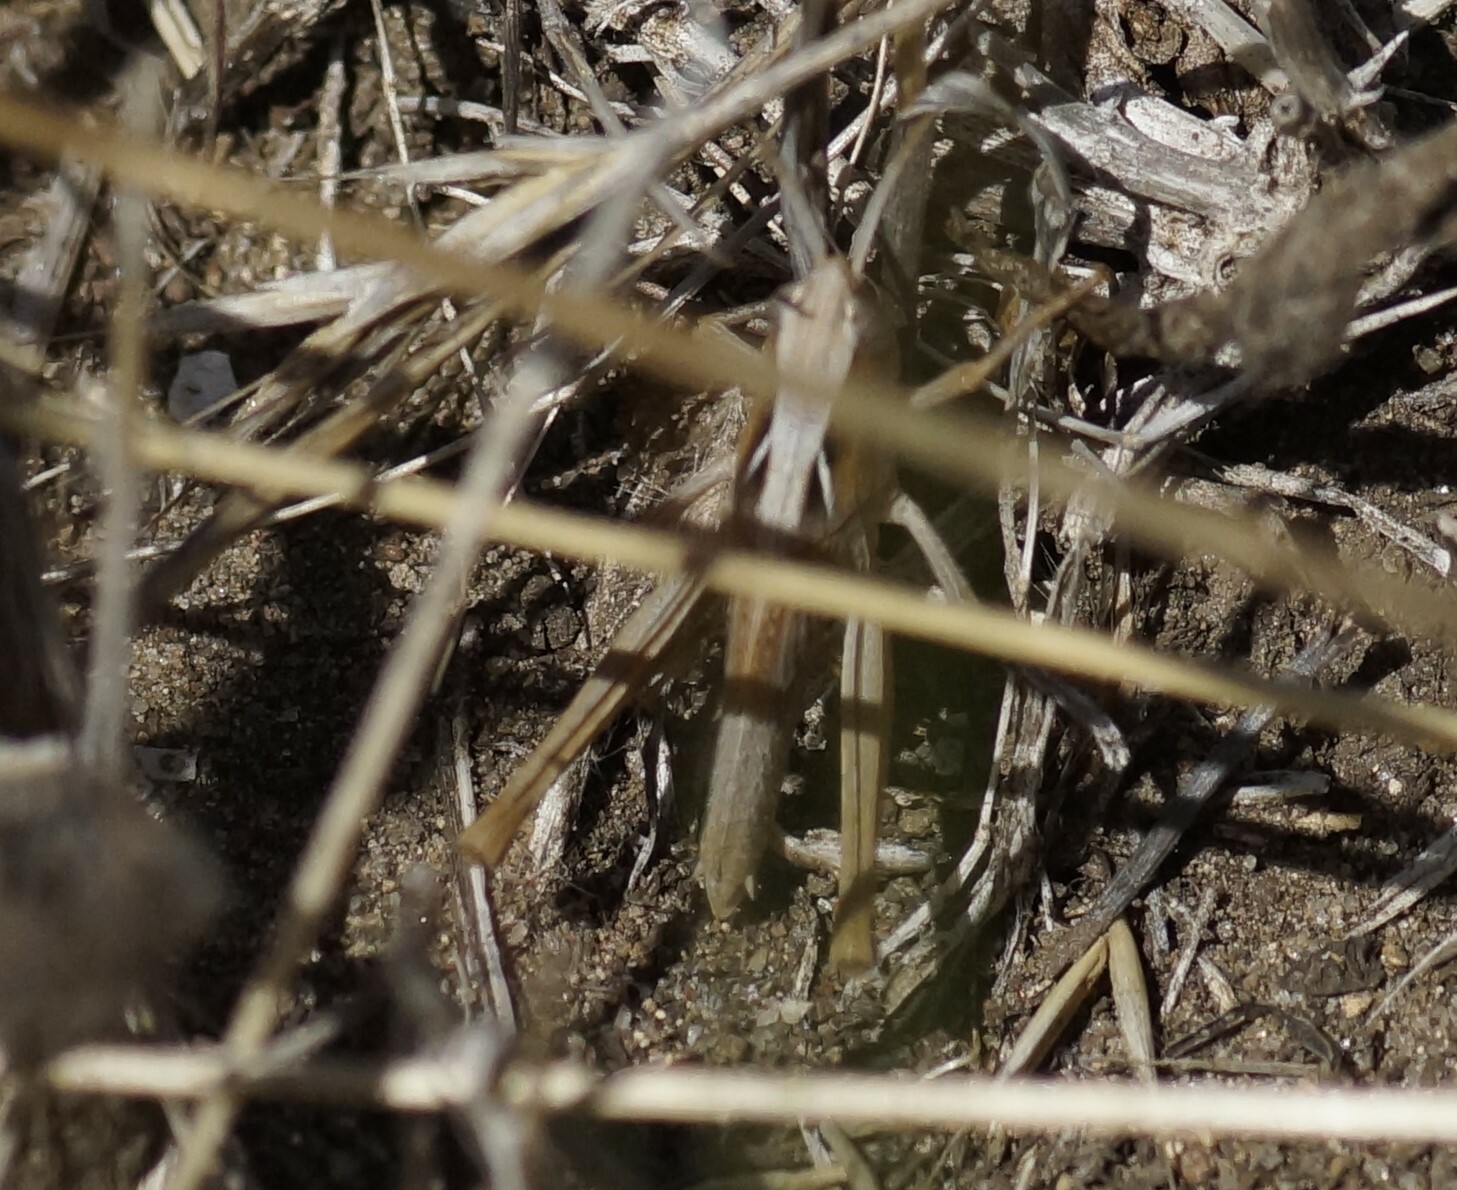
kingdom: Animalia
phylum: Arthropoda
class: Insecta
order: Orthoptera
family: Acrididae
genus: Schizobothrus
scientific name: Schizobothrus flavovittatus
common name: Disappearing grasshopper
